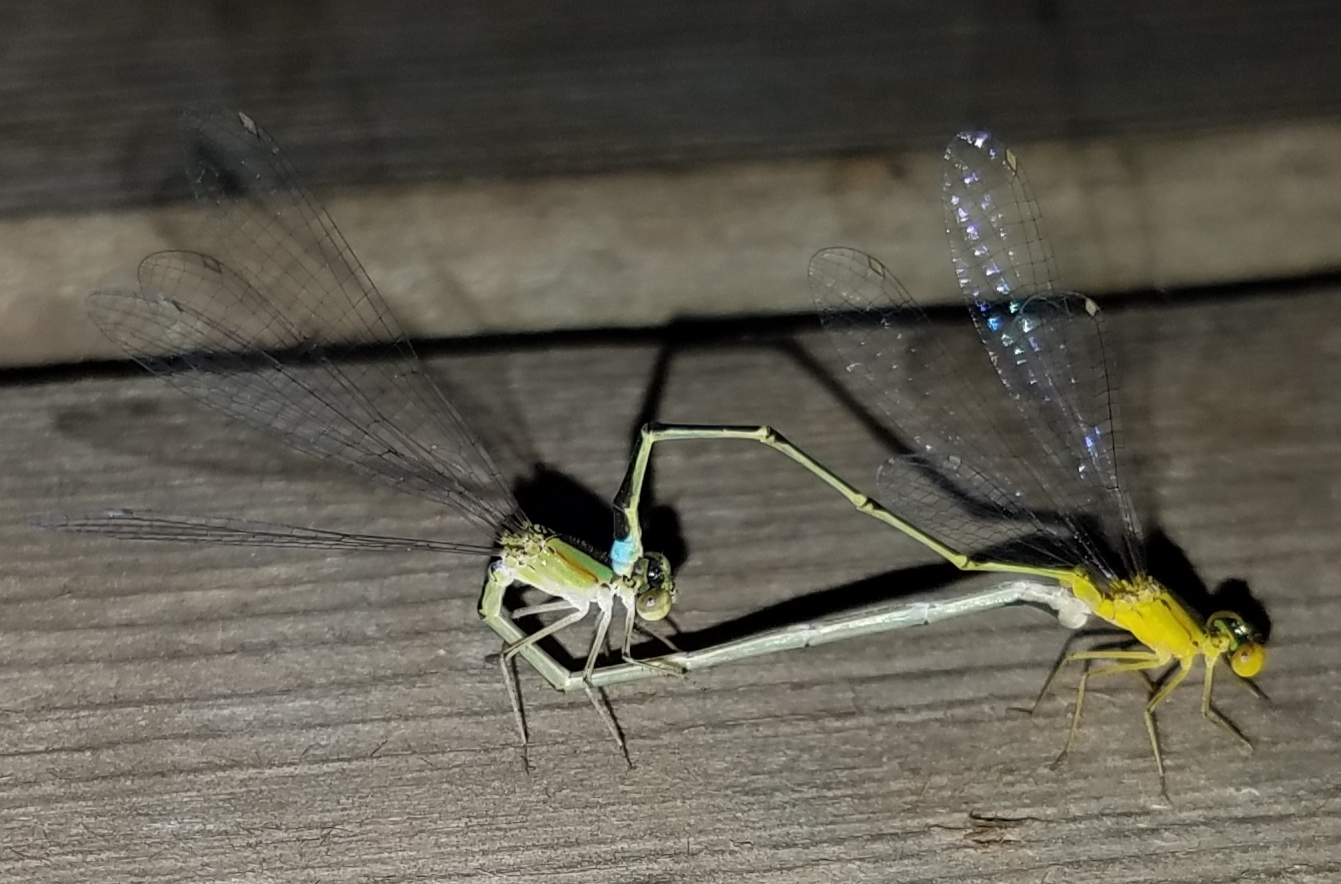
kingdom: Animalia
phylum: Arthropoda
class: Insecta
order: Odonata
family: Coenagrionidae
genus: Enallagma
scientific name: Enallagma vesperum
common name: Vesper bluet
